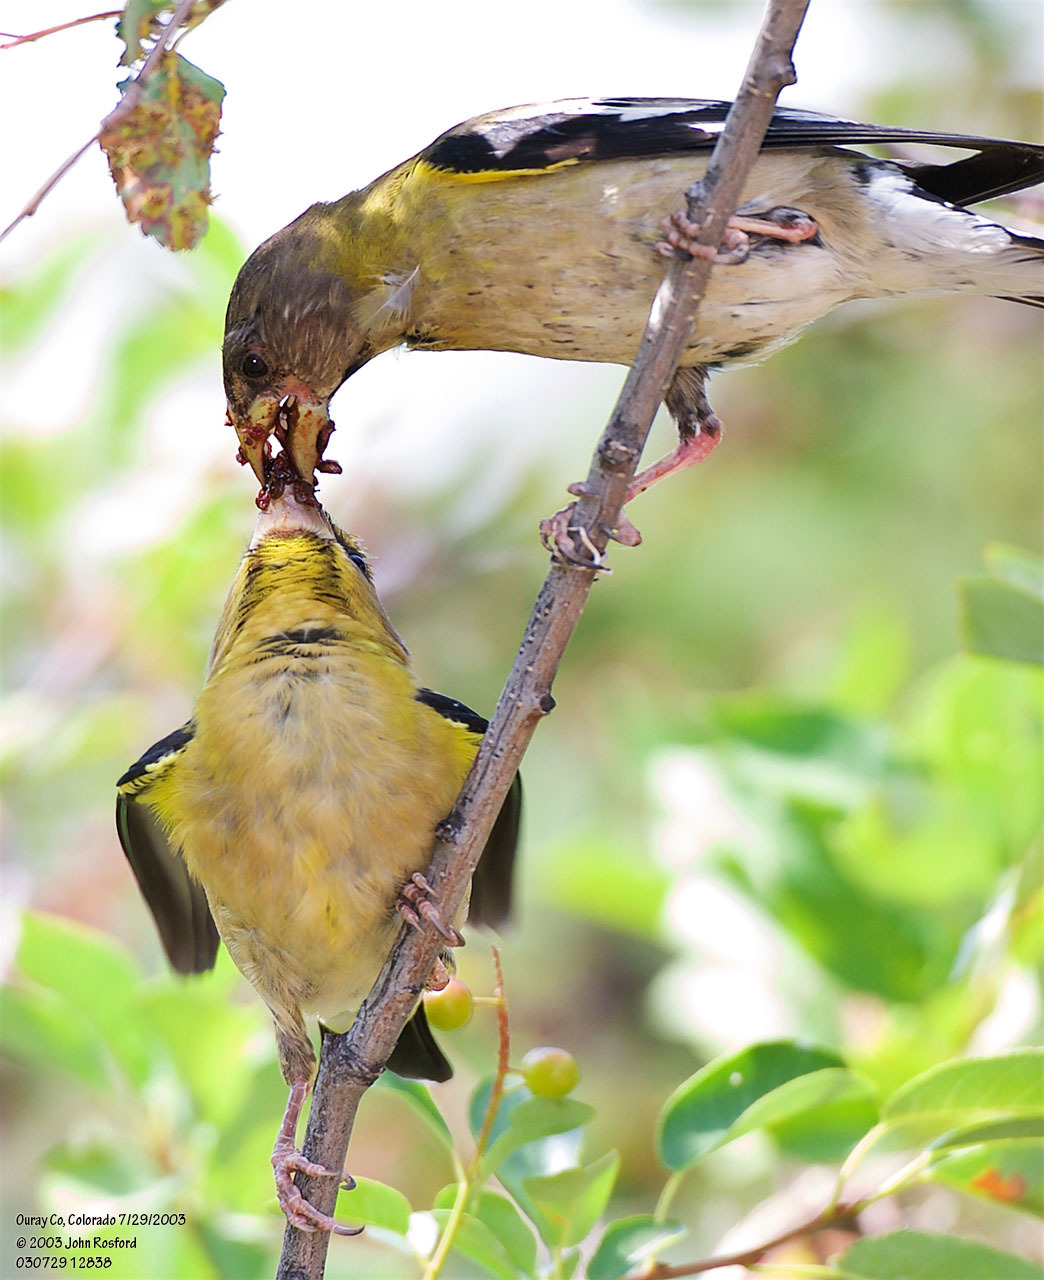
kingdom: Animalia
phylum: Chordata
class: Aves
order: Passeriformes
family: Fringillidae
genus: Hesperiphona
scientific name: Hesperiphona vespertina
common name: Evening grosbeak
